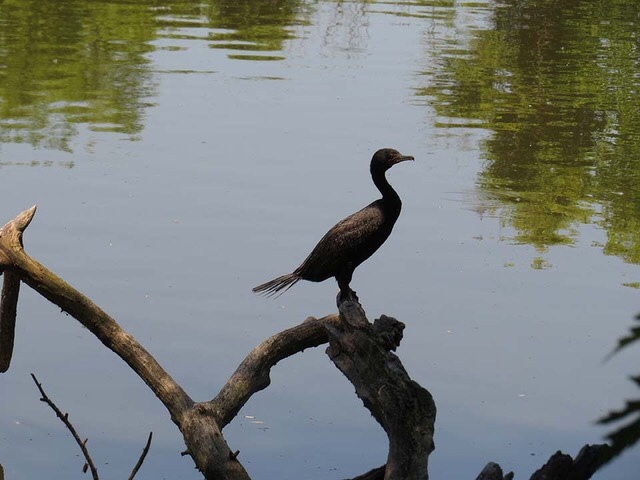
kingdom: Animalia
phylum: Chordata
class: Aves
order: Suliformes
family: Phalacrocoracidae
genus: Phalacrocorax
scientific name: Phalacrocorax auritus
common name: Double-crested cormorant
